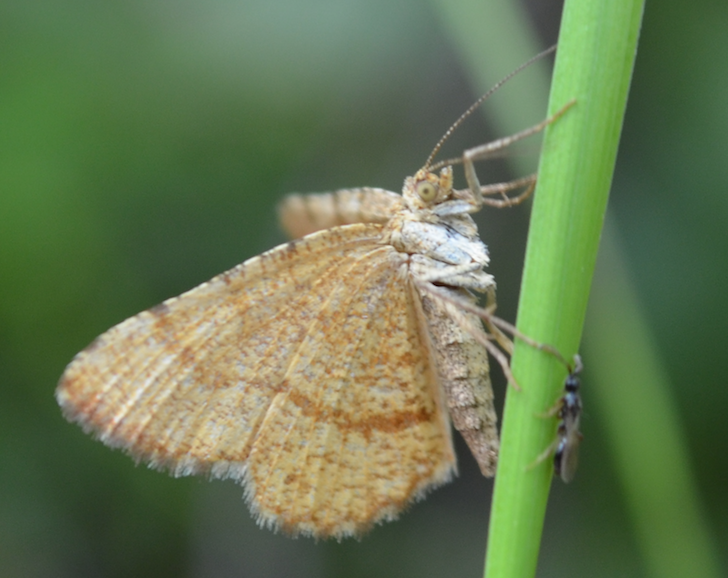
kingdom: Animalia
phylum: Arthropoda
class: Insecta
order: Lepidoptera
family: Geometridae
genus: Macaria
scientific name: Macaria brunneata
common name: Rannoch looper
